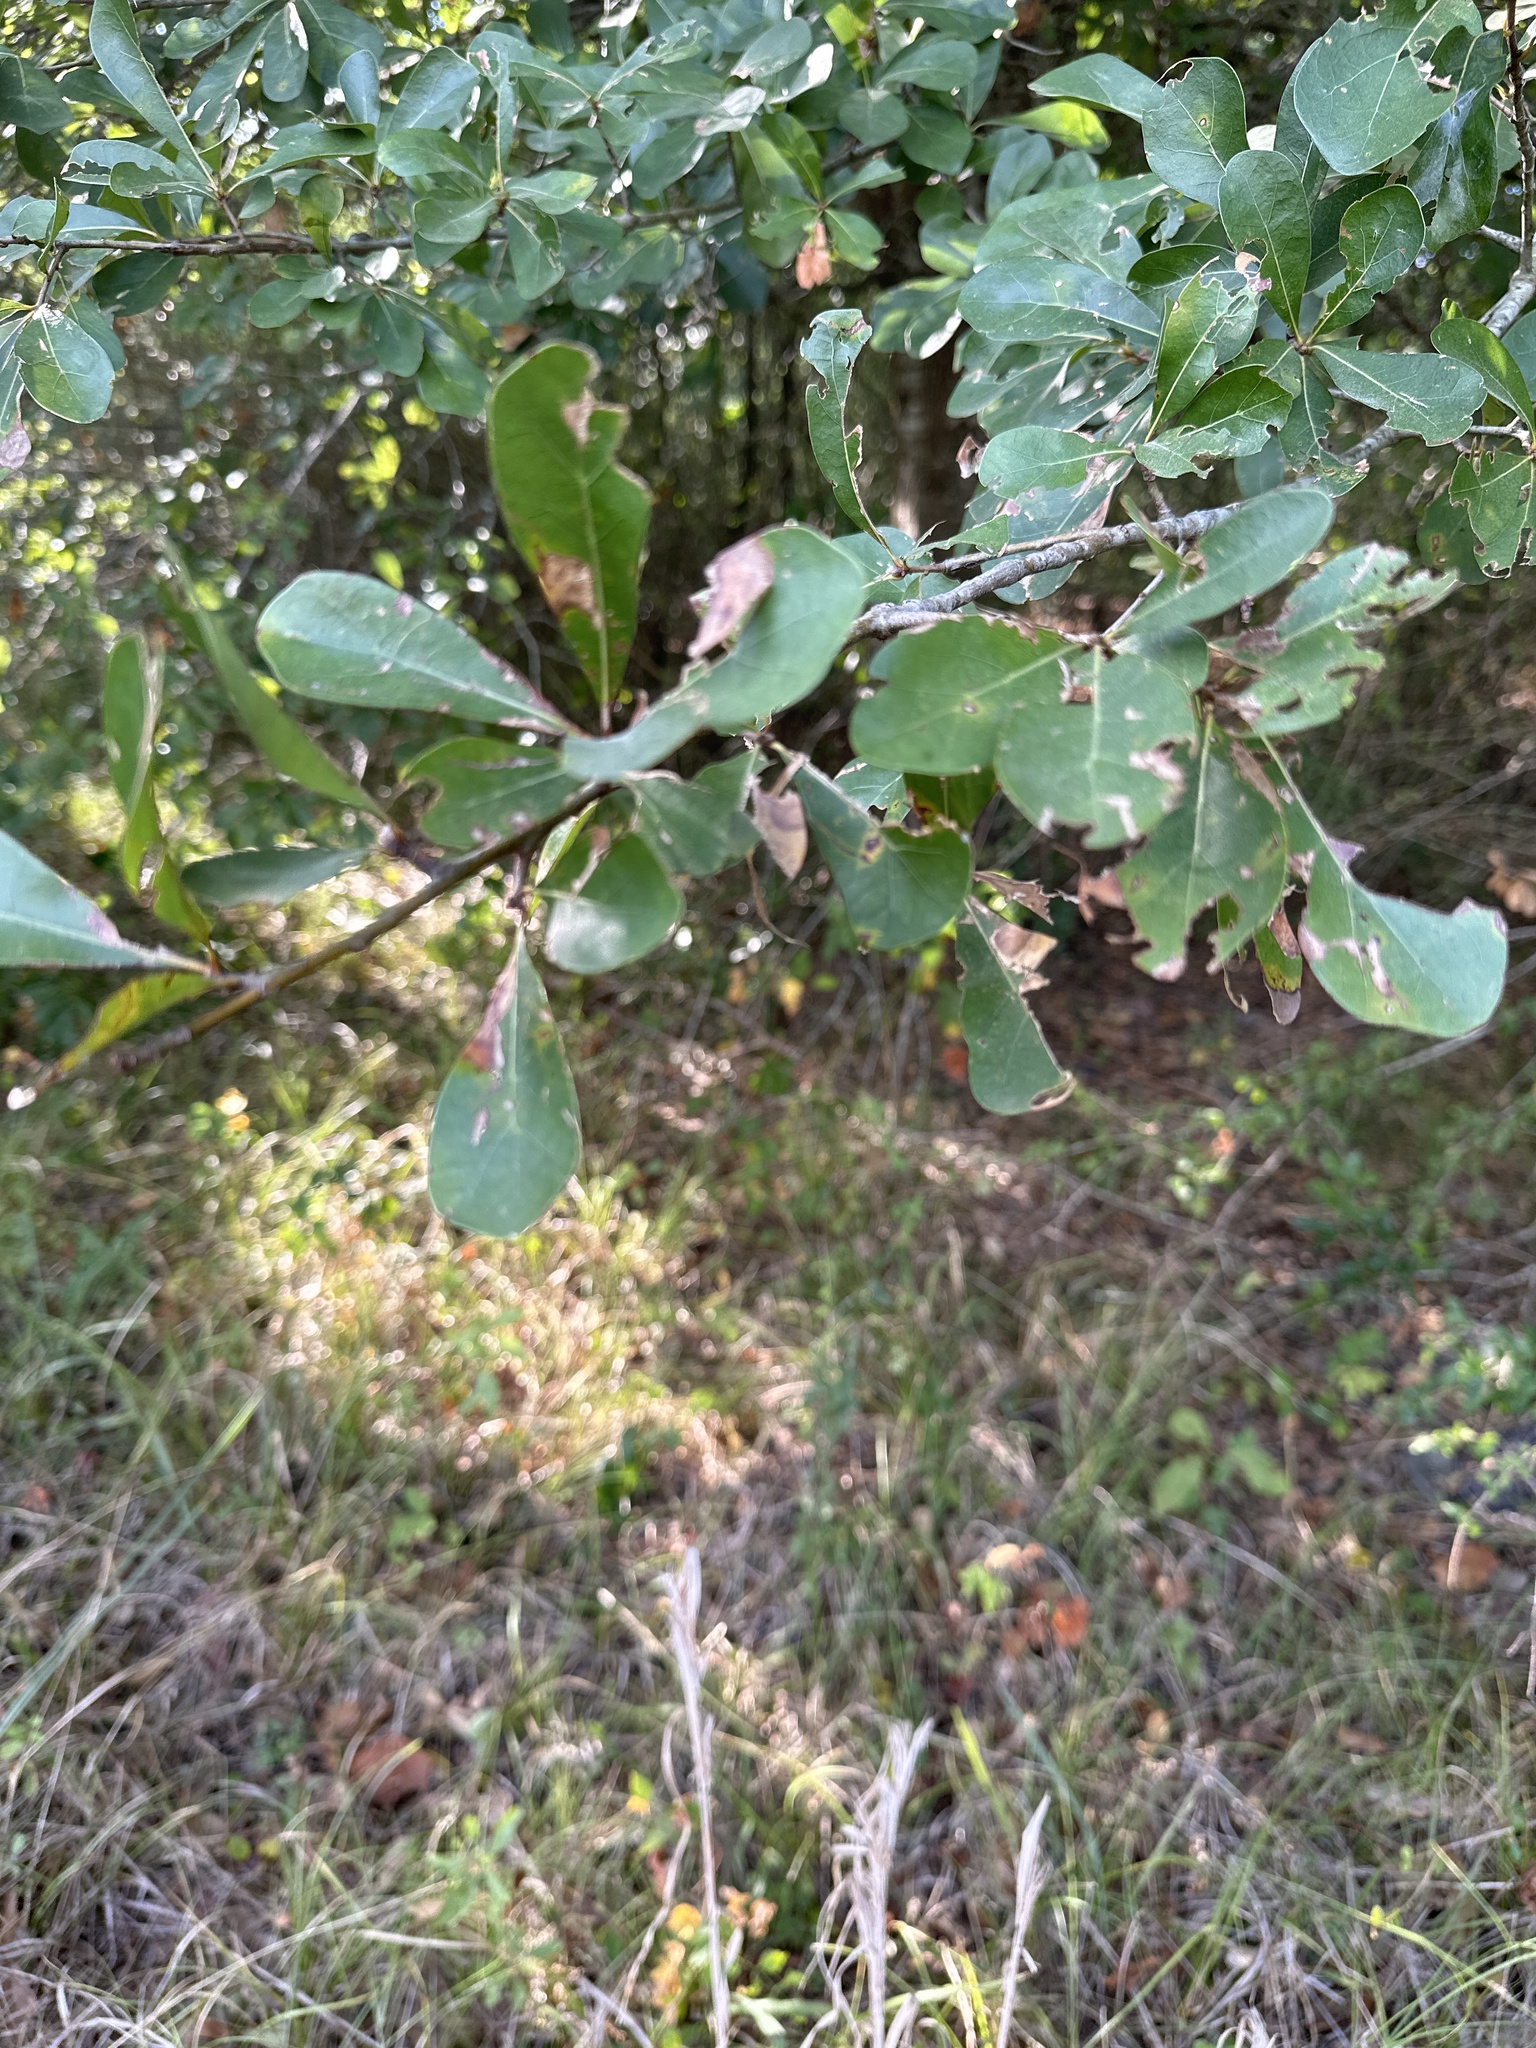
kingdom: Plantae
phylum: Tracheophyta
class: Magnoliopsida
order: Fagales
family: Fagaceae
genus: Quercus
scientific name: Quercus nigra
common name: Water oak
